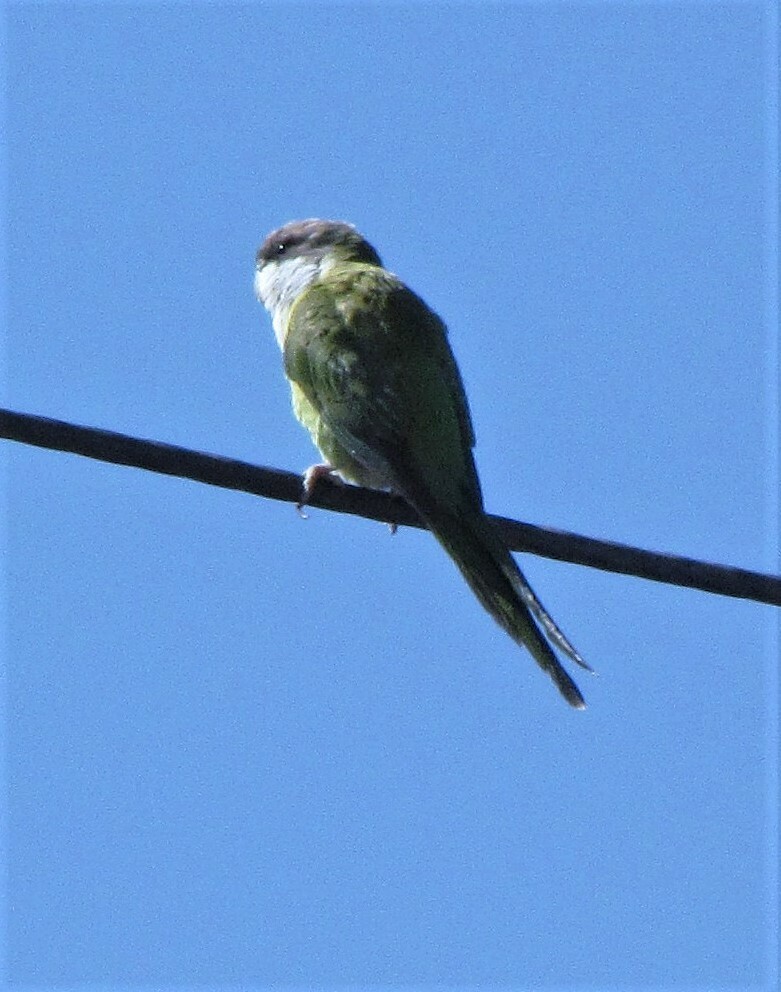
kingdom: Animalia
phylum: Chordata
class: Aves
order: Psittaciformes
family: Psittacidae
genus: Psilopsiagon
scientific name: Psilopsiagon aymara
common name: Grey-hooded parakeet
